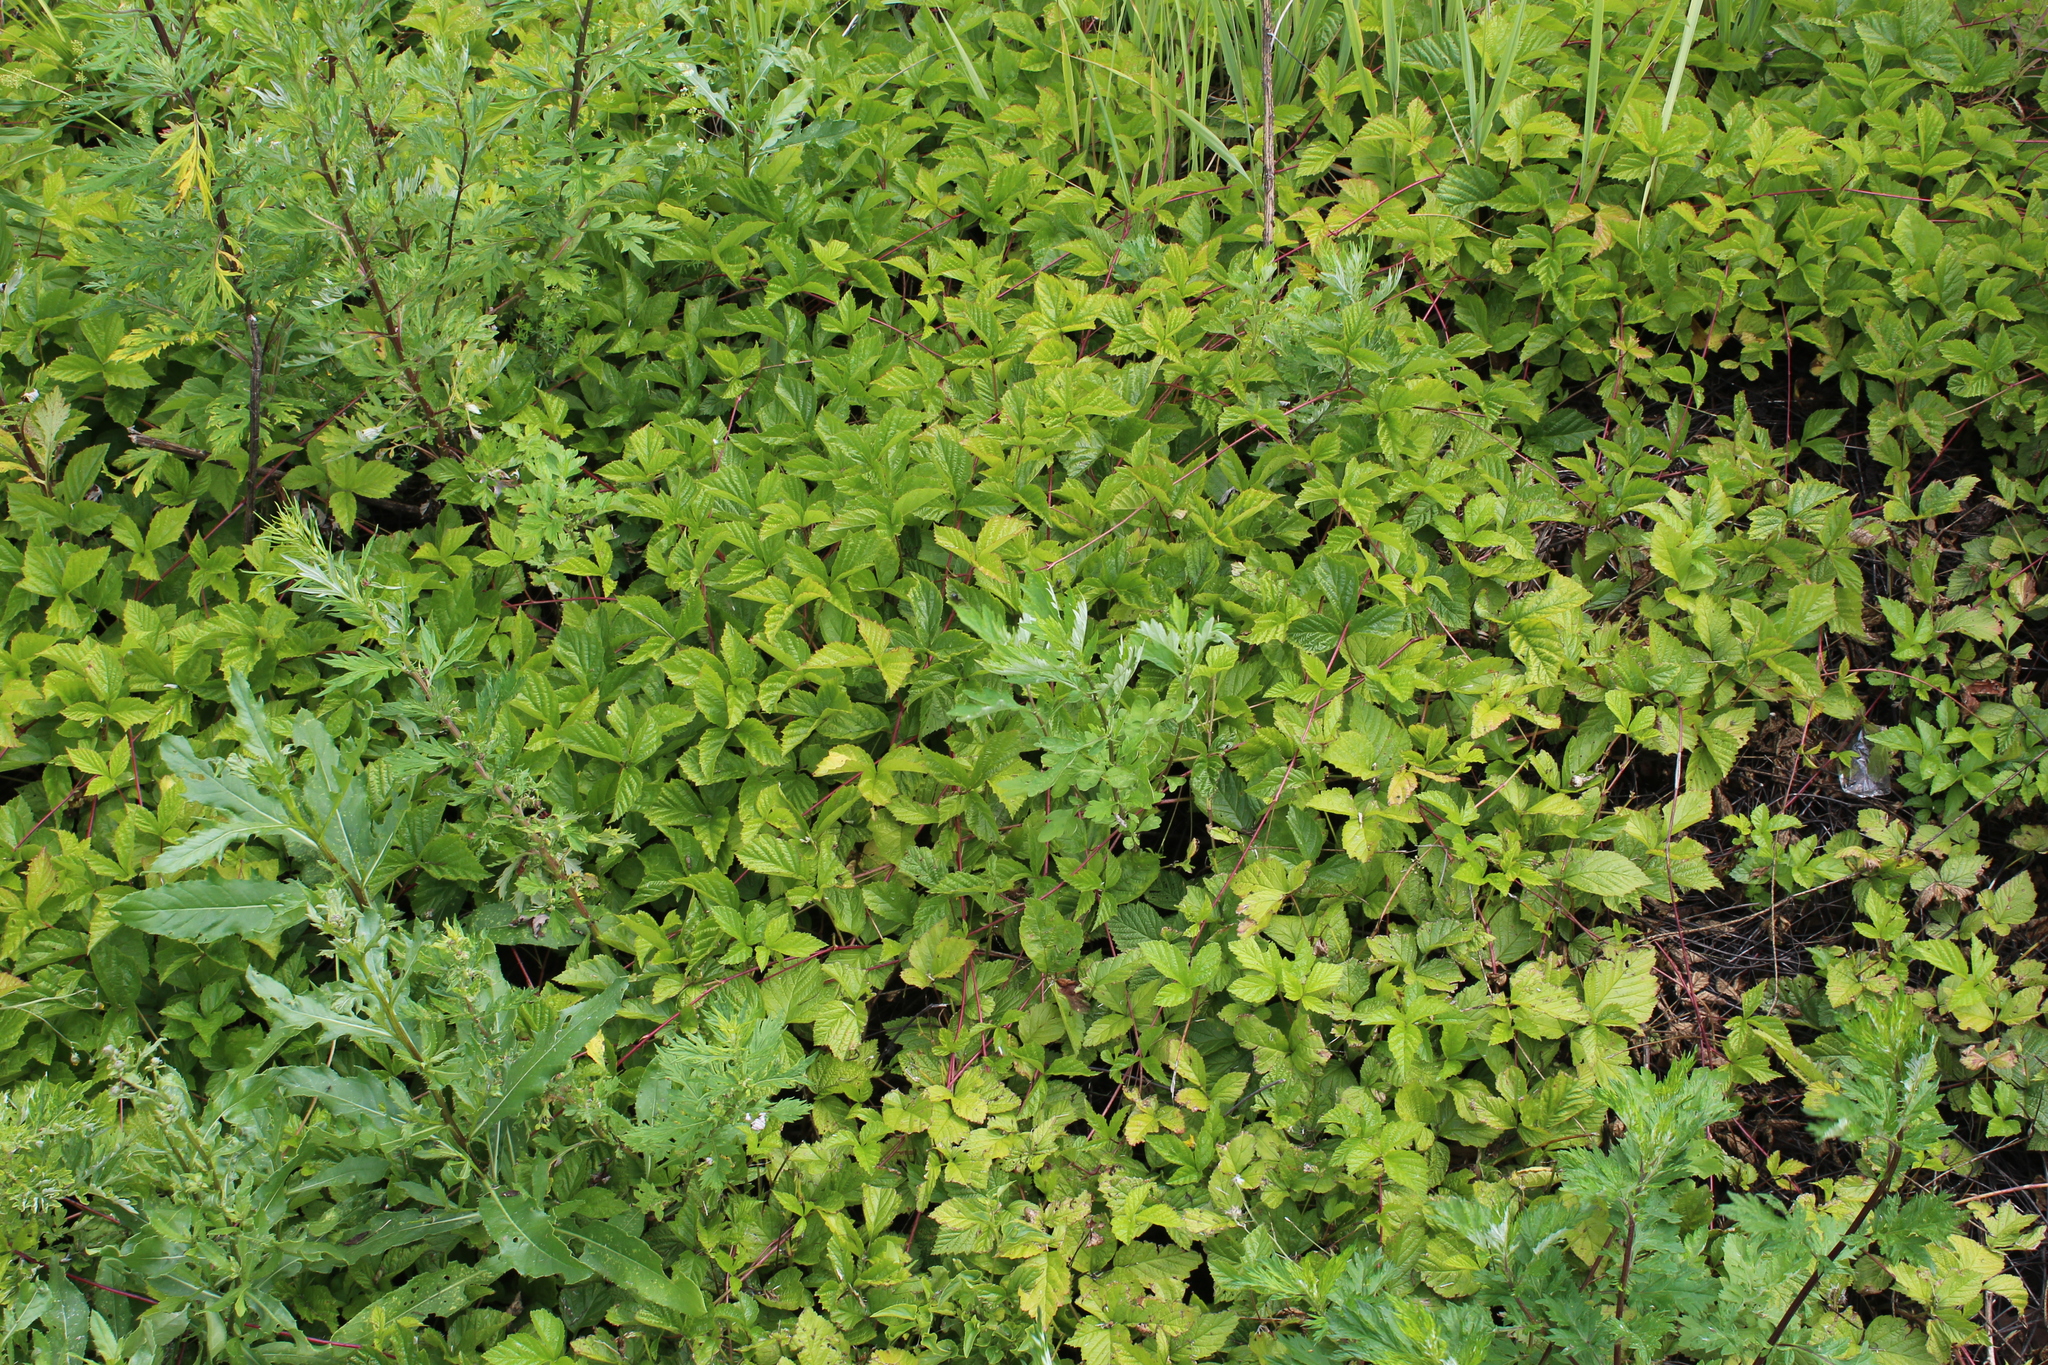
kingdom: Plantae
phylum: Tracheophyta
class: Magnoliopsida
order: Rosales
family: Rosaceae
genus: Rubus
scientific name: Rubus caesius
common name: Dewberry
